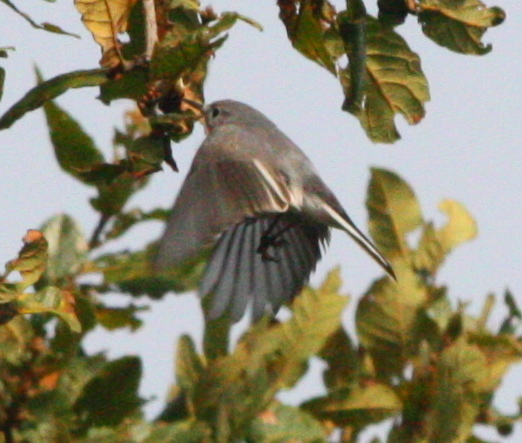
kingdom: Animalia
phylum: Chordata
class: Aves
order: Passeriformes
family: Polioptilidae
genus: Polioptila
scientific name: Polioptila caerulea
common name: Blue-gray gnatcatcher
